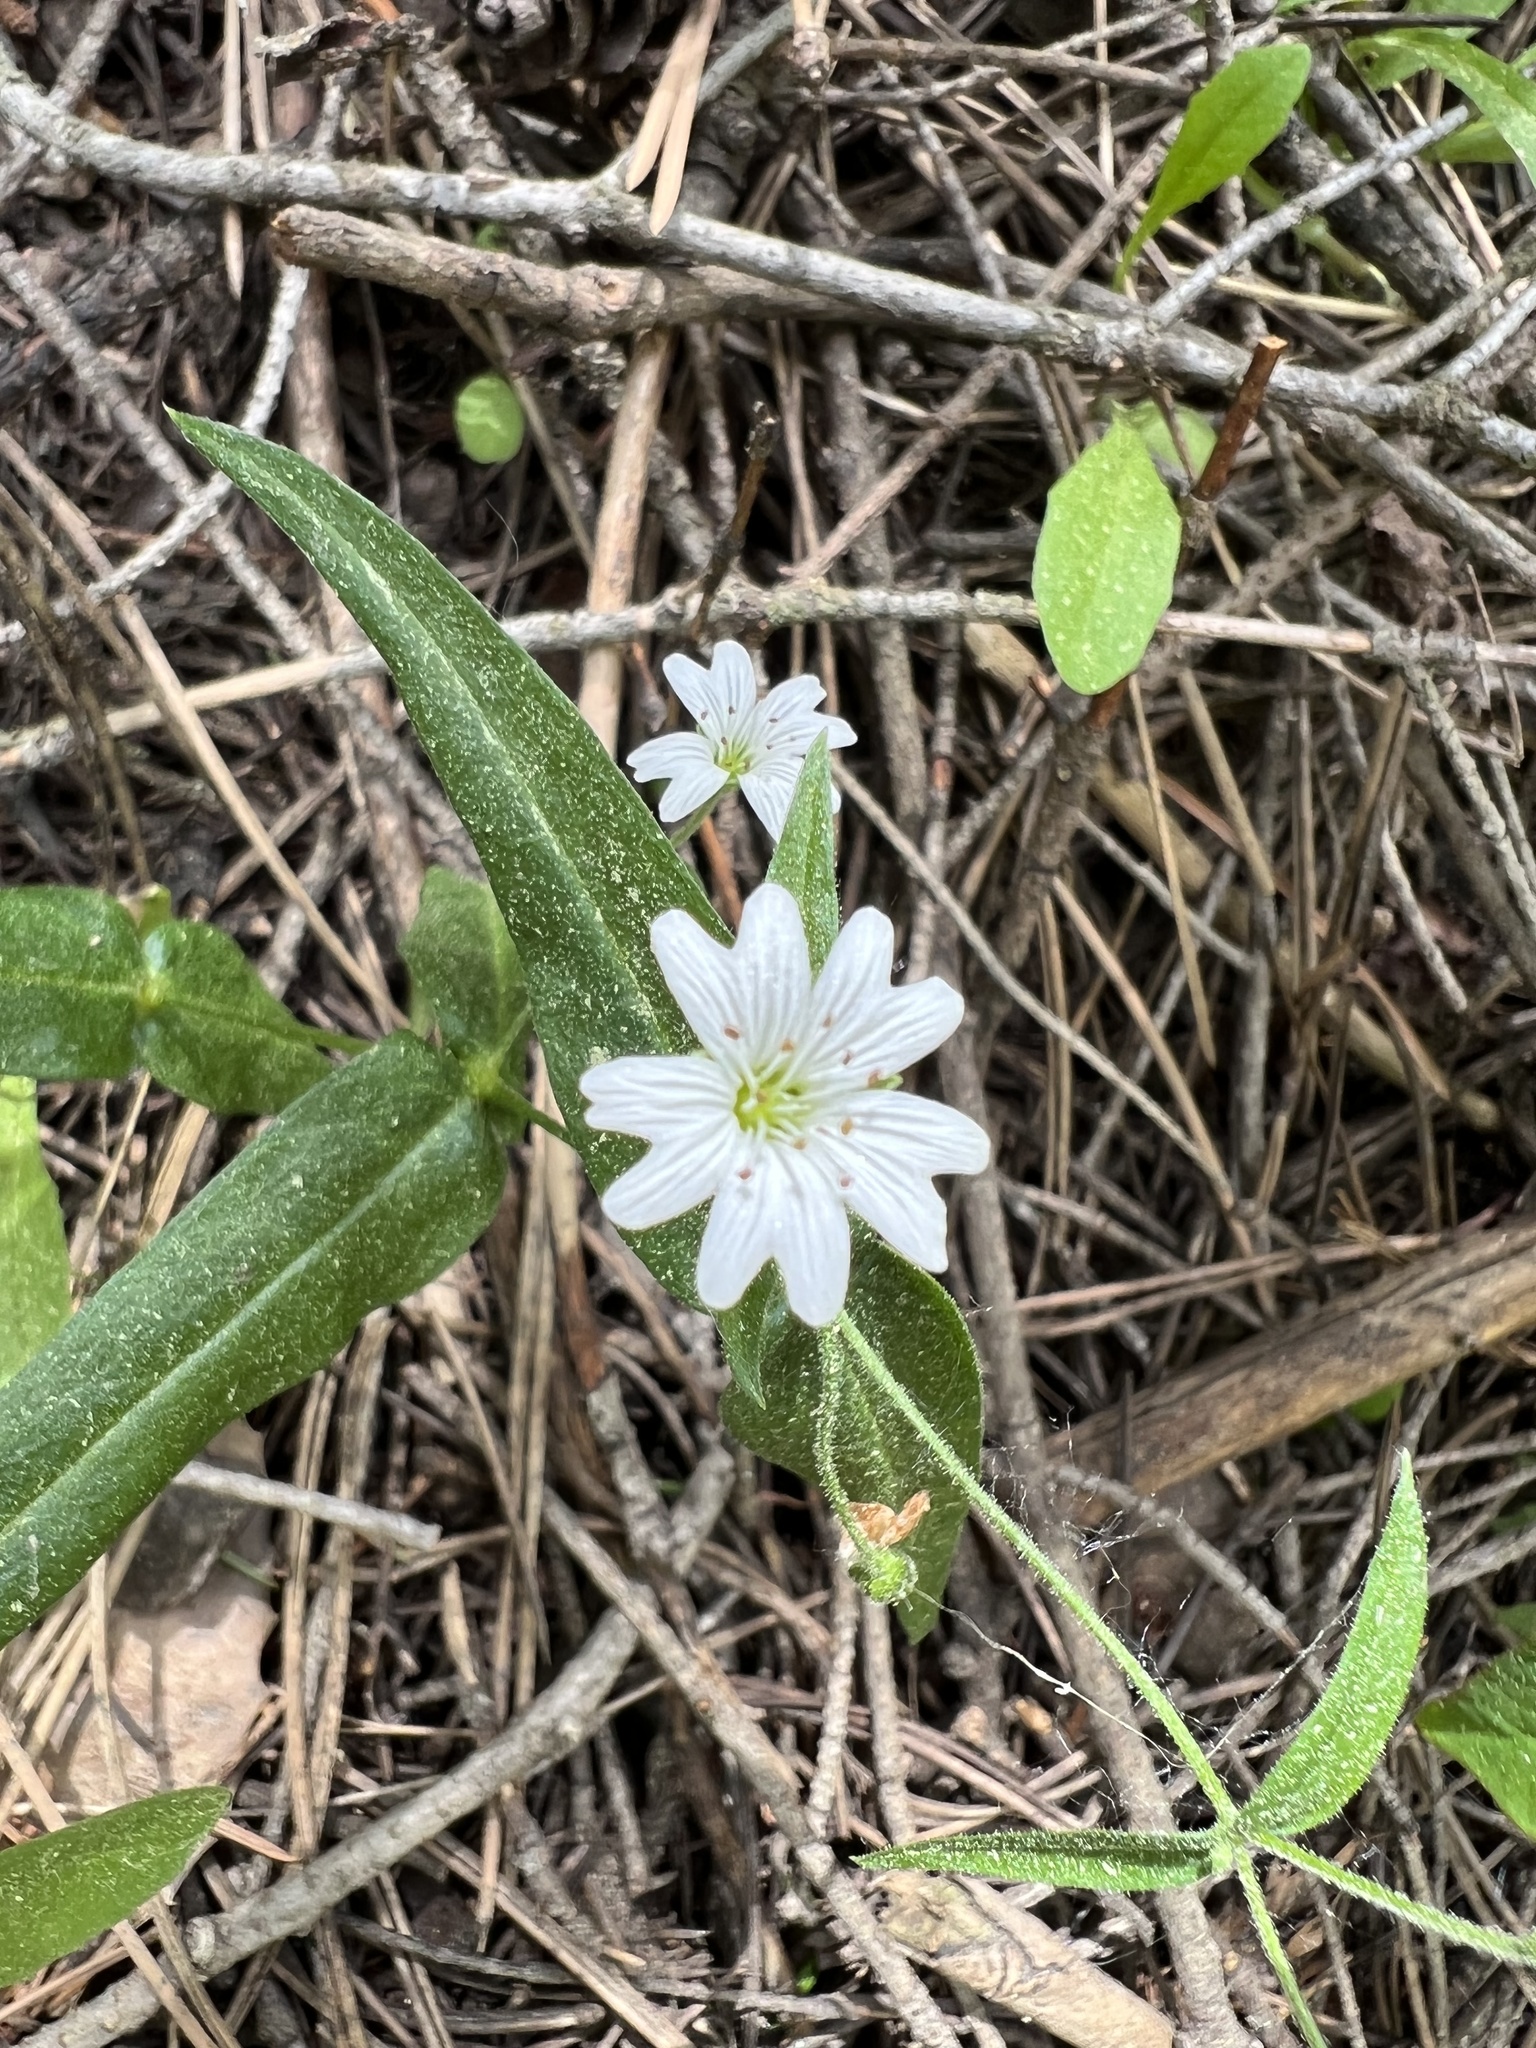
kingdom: Plantae
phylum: Tracheophyta
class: Magnoliopsida
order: Caryophyllales
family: Caryophyllaceae
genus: Schizotechium
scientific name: Schizotechium jamesianum
